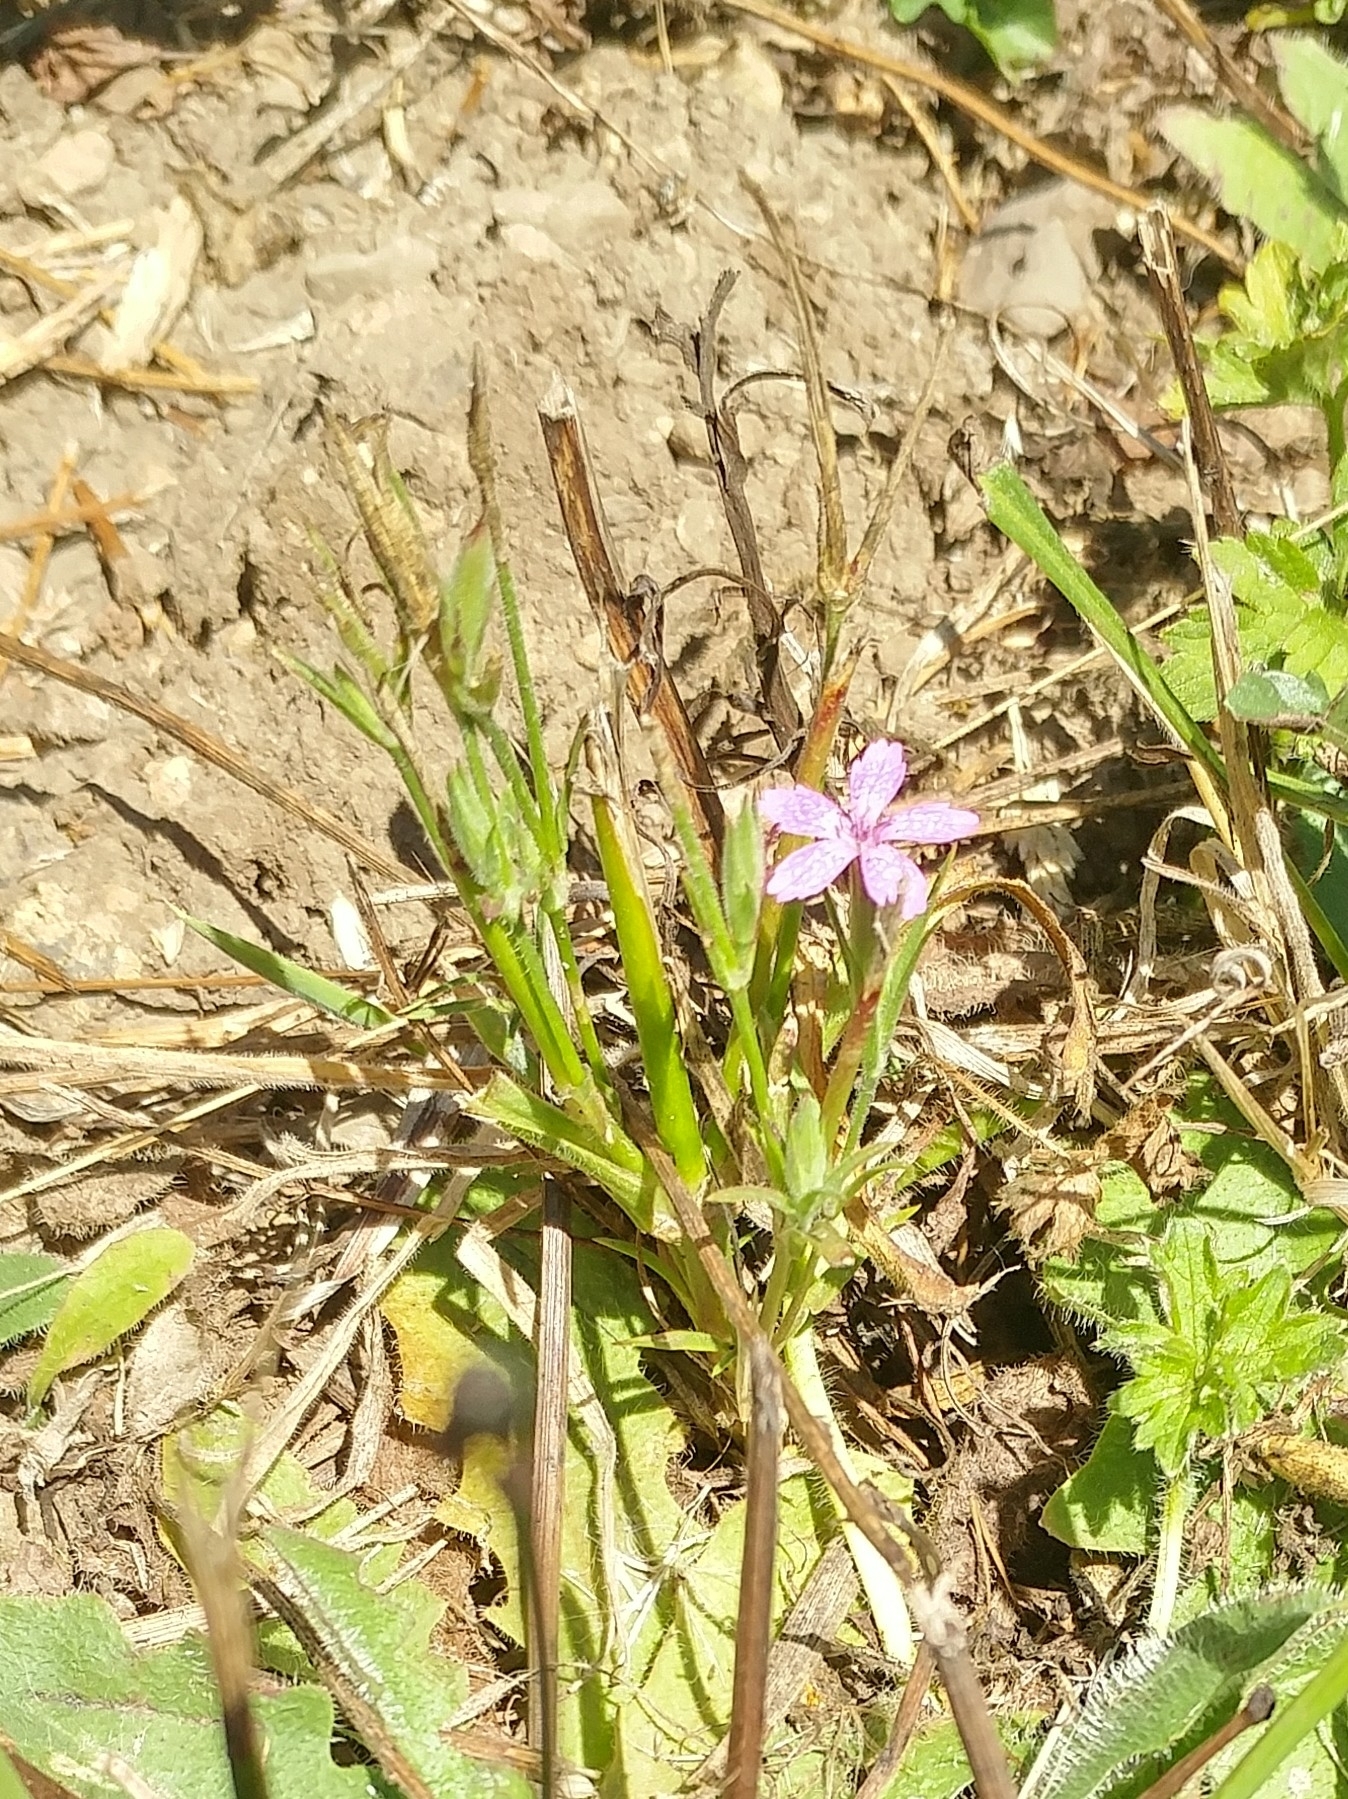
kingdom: Plantae
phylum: Tracheophyta
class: Magnoliopsida
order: Caryophyllales
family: Caryophyllaceae
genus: Dianthus
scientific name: Dianthus armeria
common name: Deptford pink
